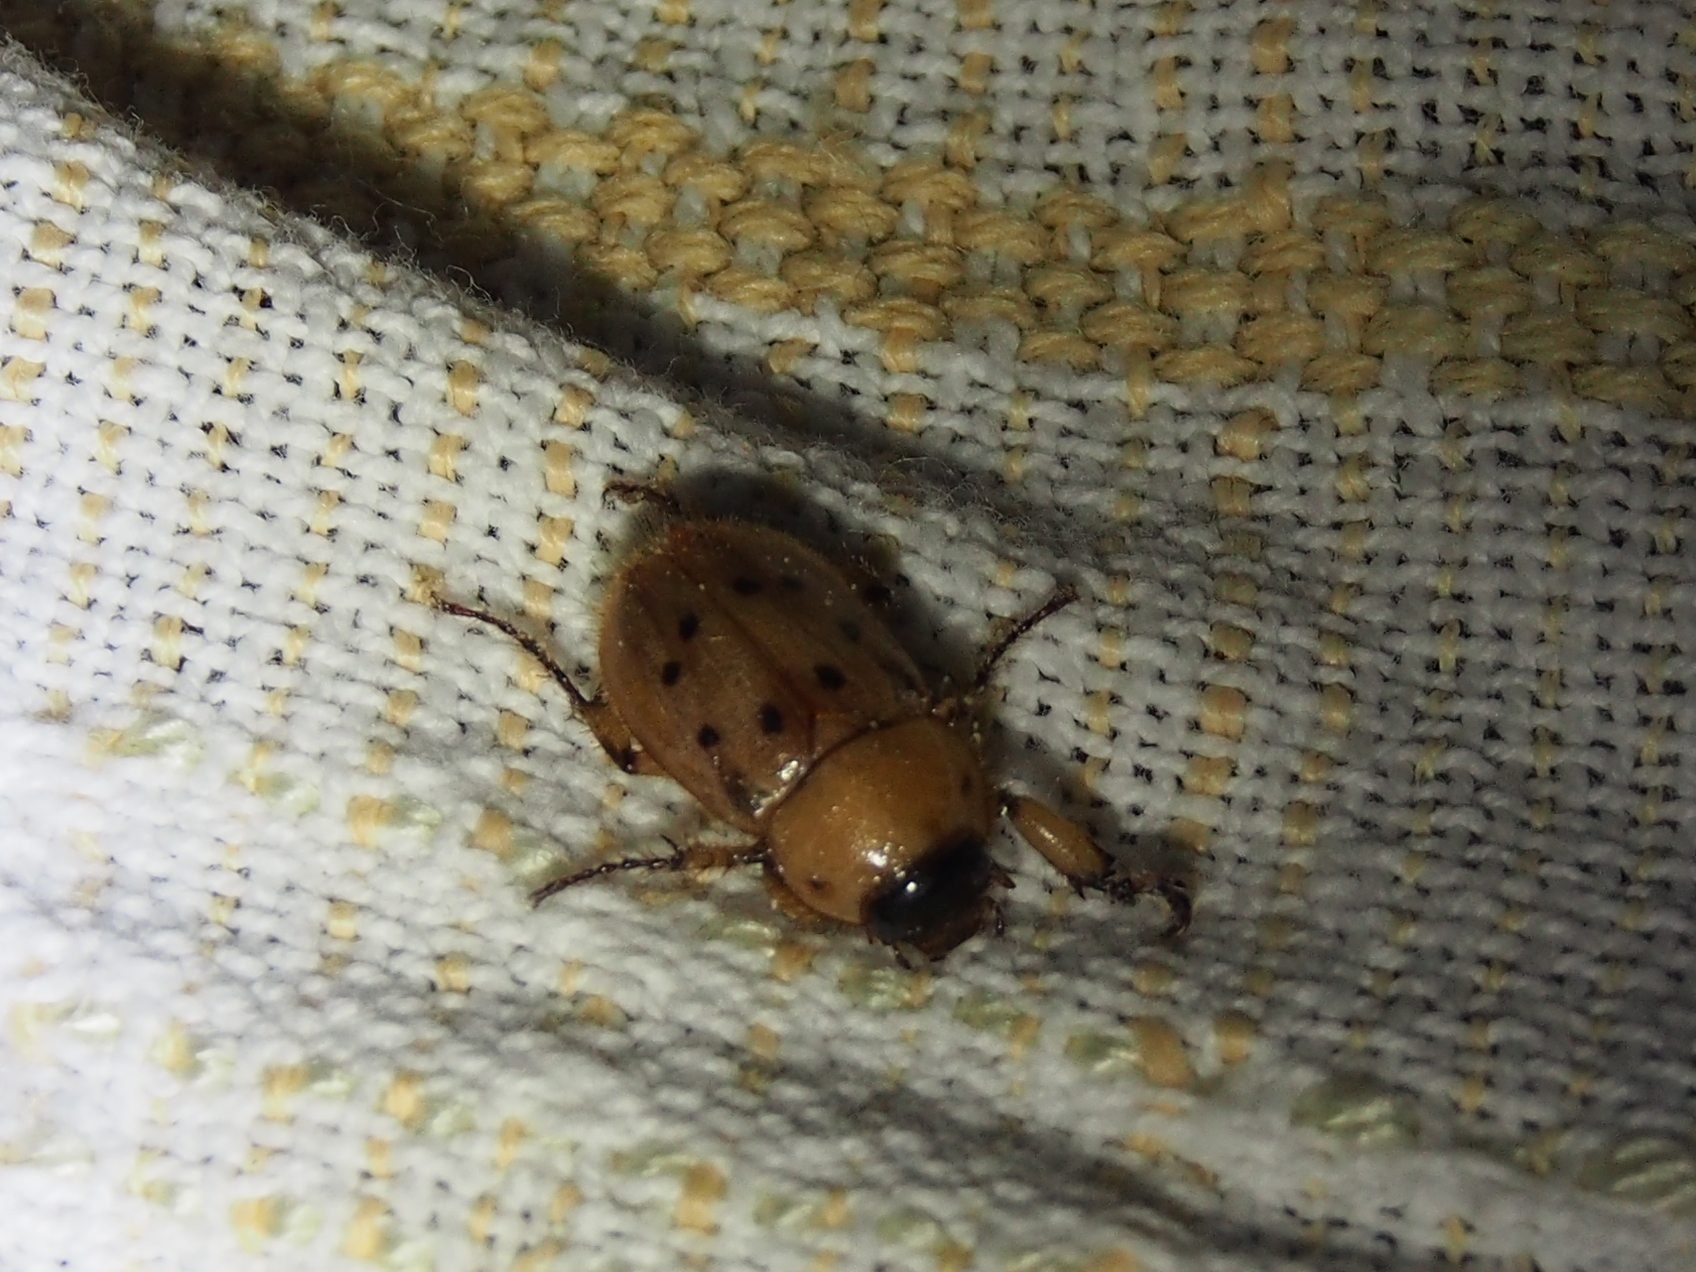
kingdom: Animalia
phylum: Arthropoda
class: Insecta
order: Coleoptera
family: Scarabaeidae
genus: Cyclocephala
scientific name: Cyclocephala brittoni
